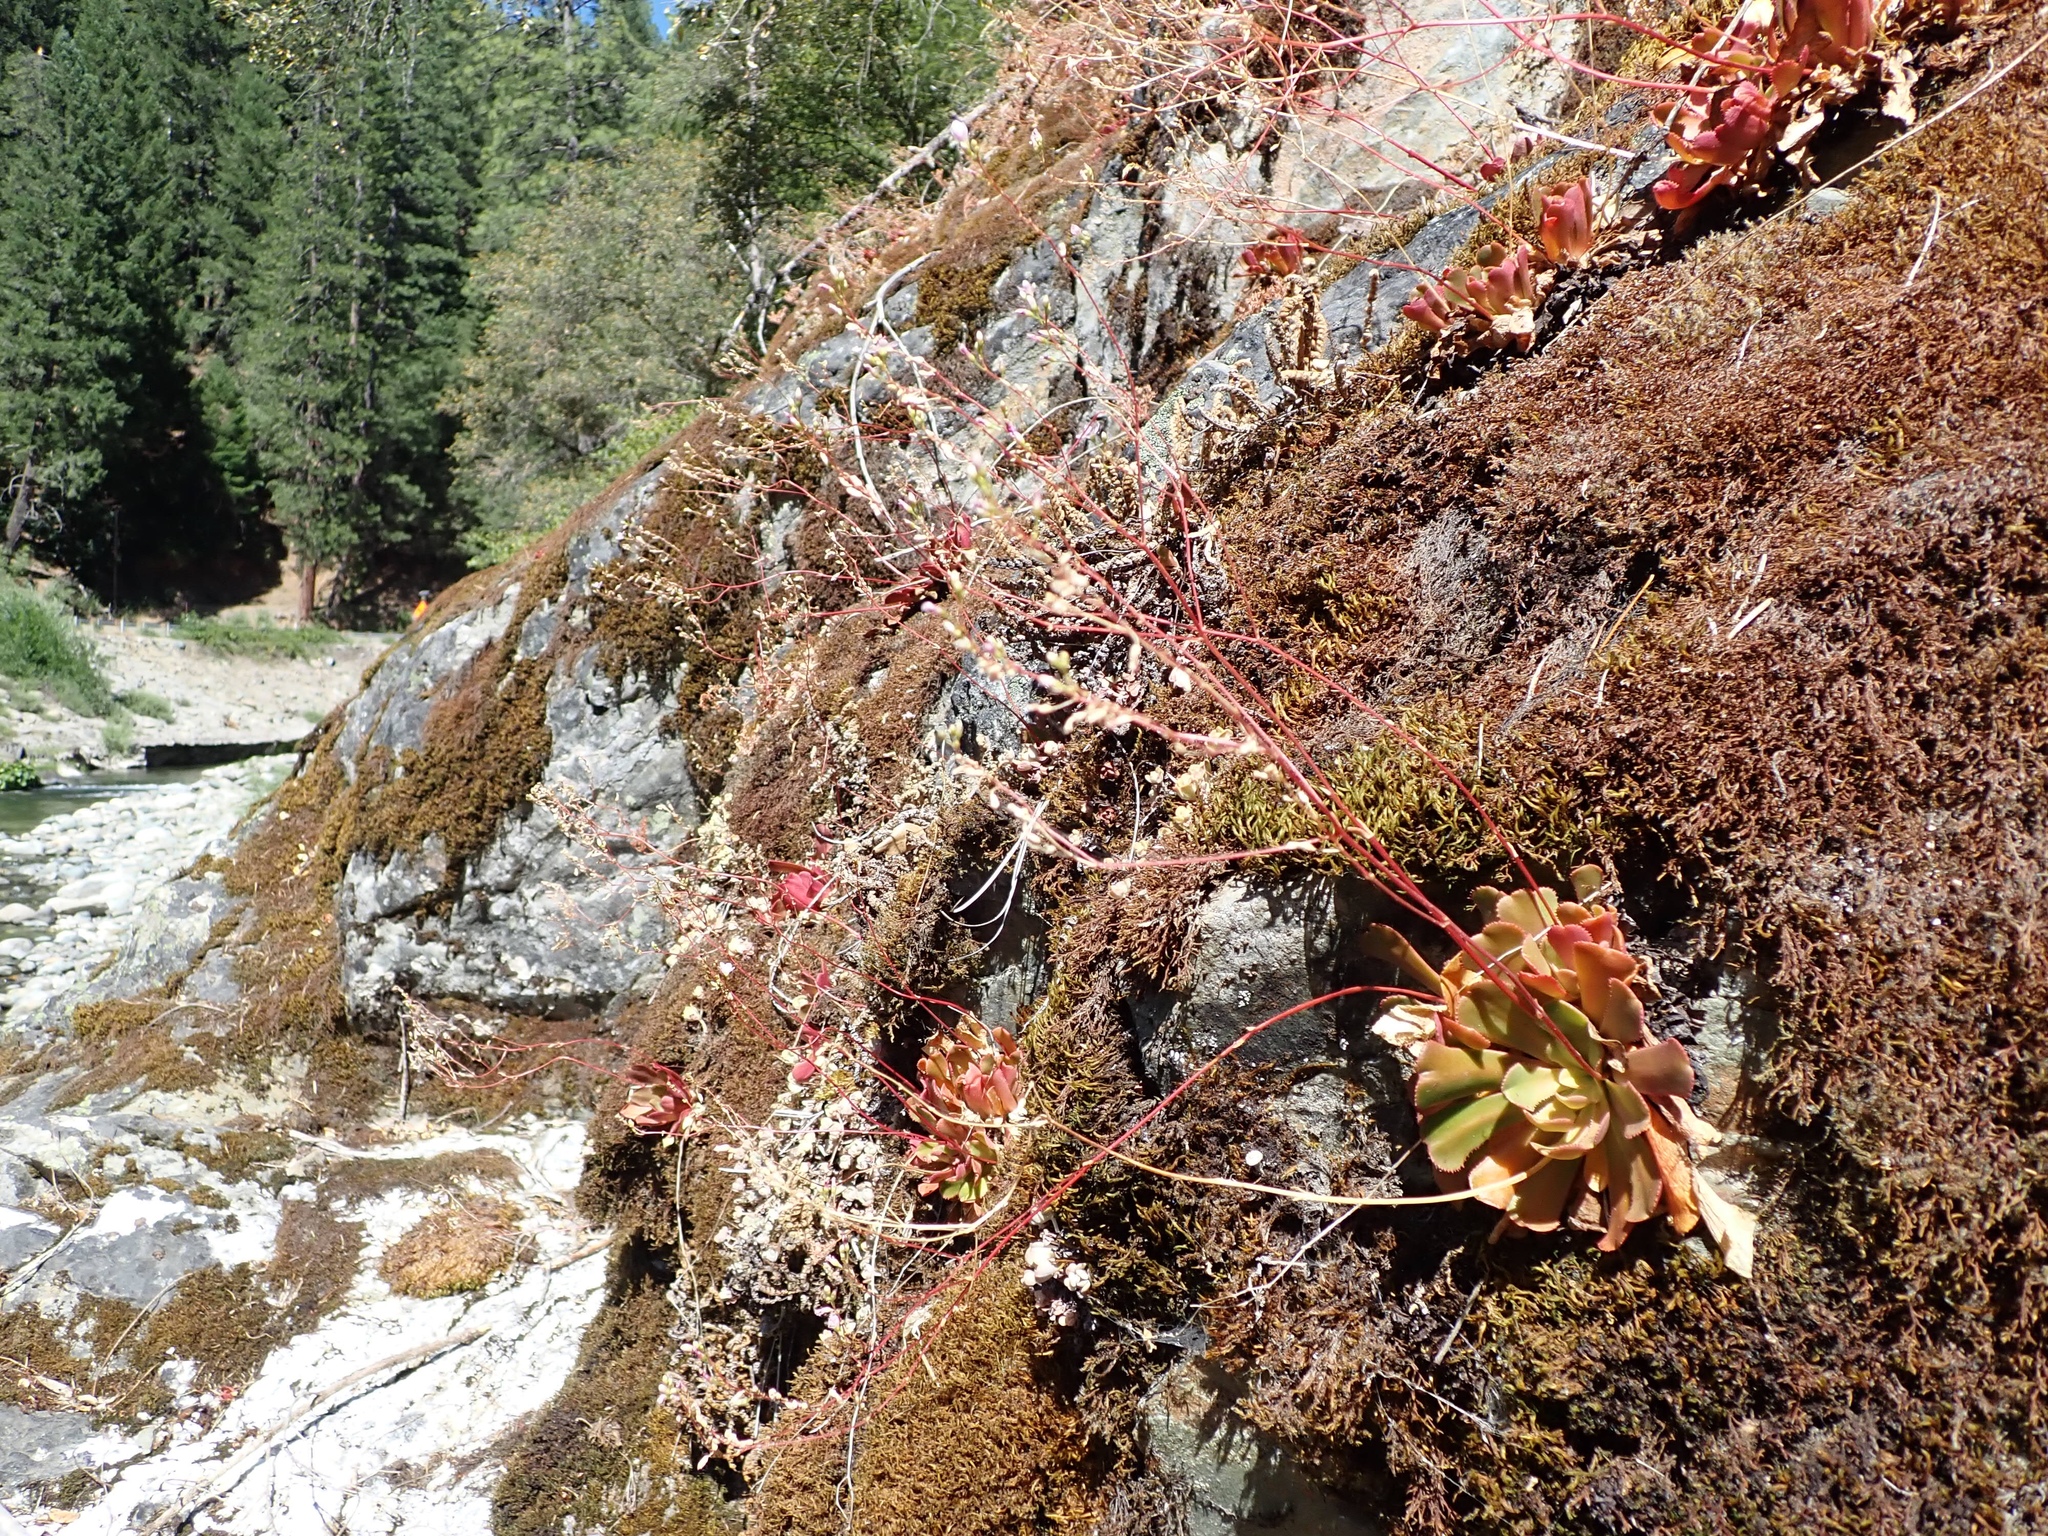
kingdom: Plantae
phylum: Tracheophyta
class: Magnoliopsida
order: Caryophyllales
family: Montiaceae
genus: Lewisia
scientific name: Lewisia cantelovii
